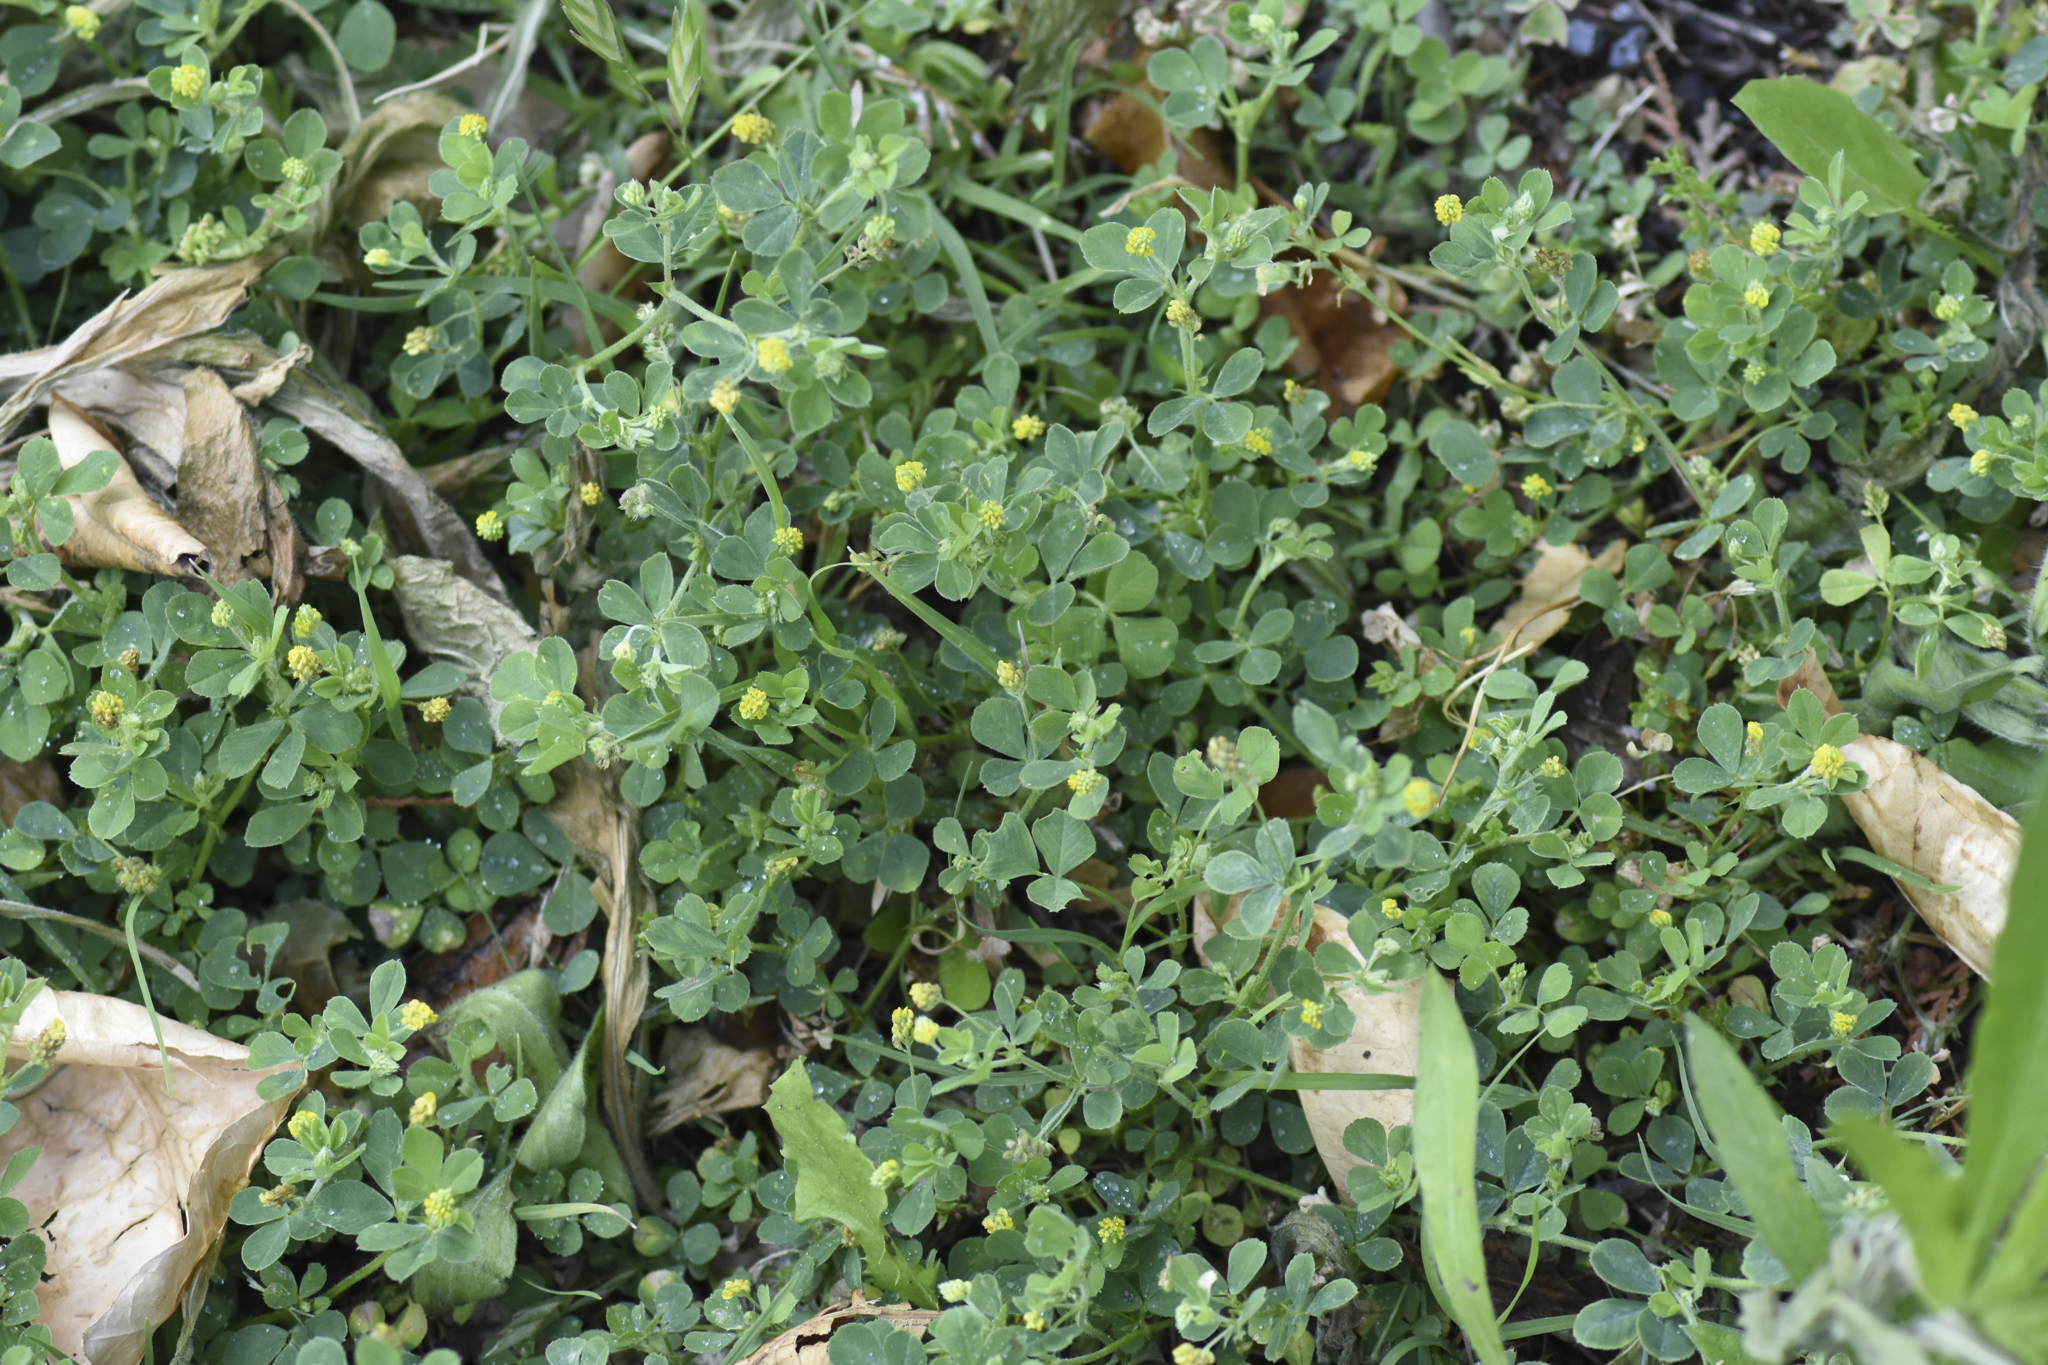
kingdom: Plantae
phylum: Tracheophyta
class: Magnoliopsida
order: Fabales
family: Fabaceae
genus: Medicago
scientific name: Medicago lupulina
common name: Black medick
